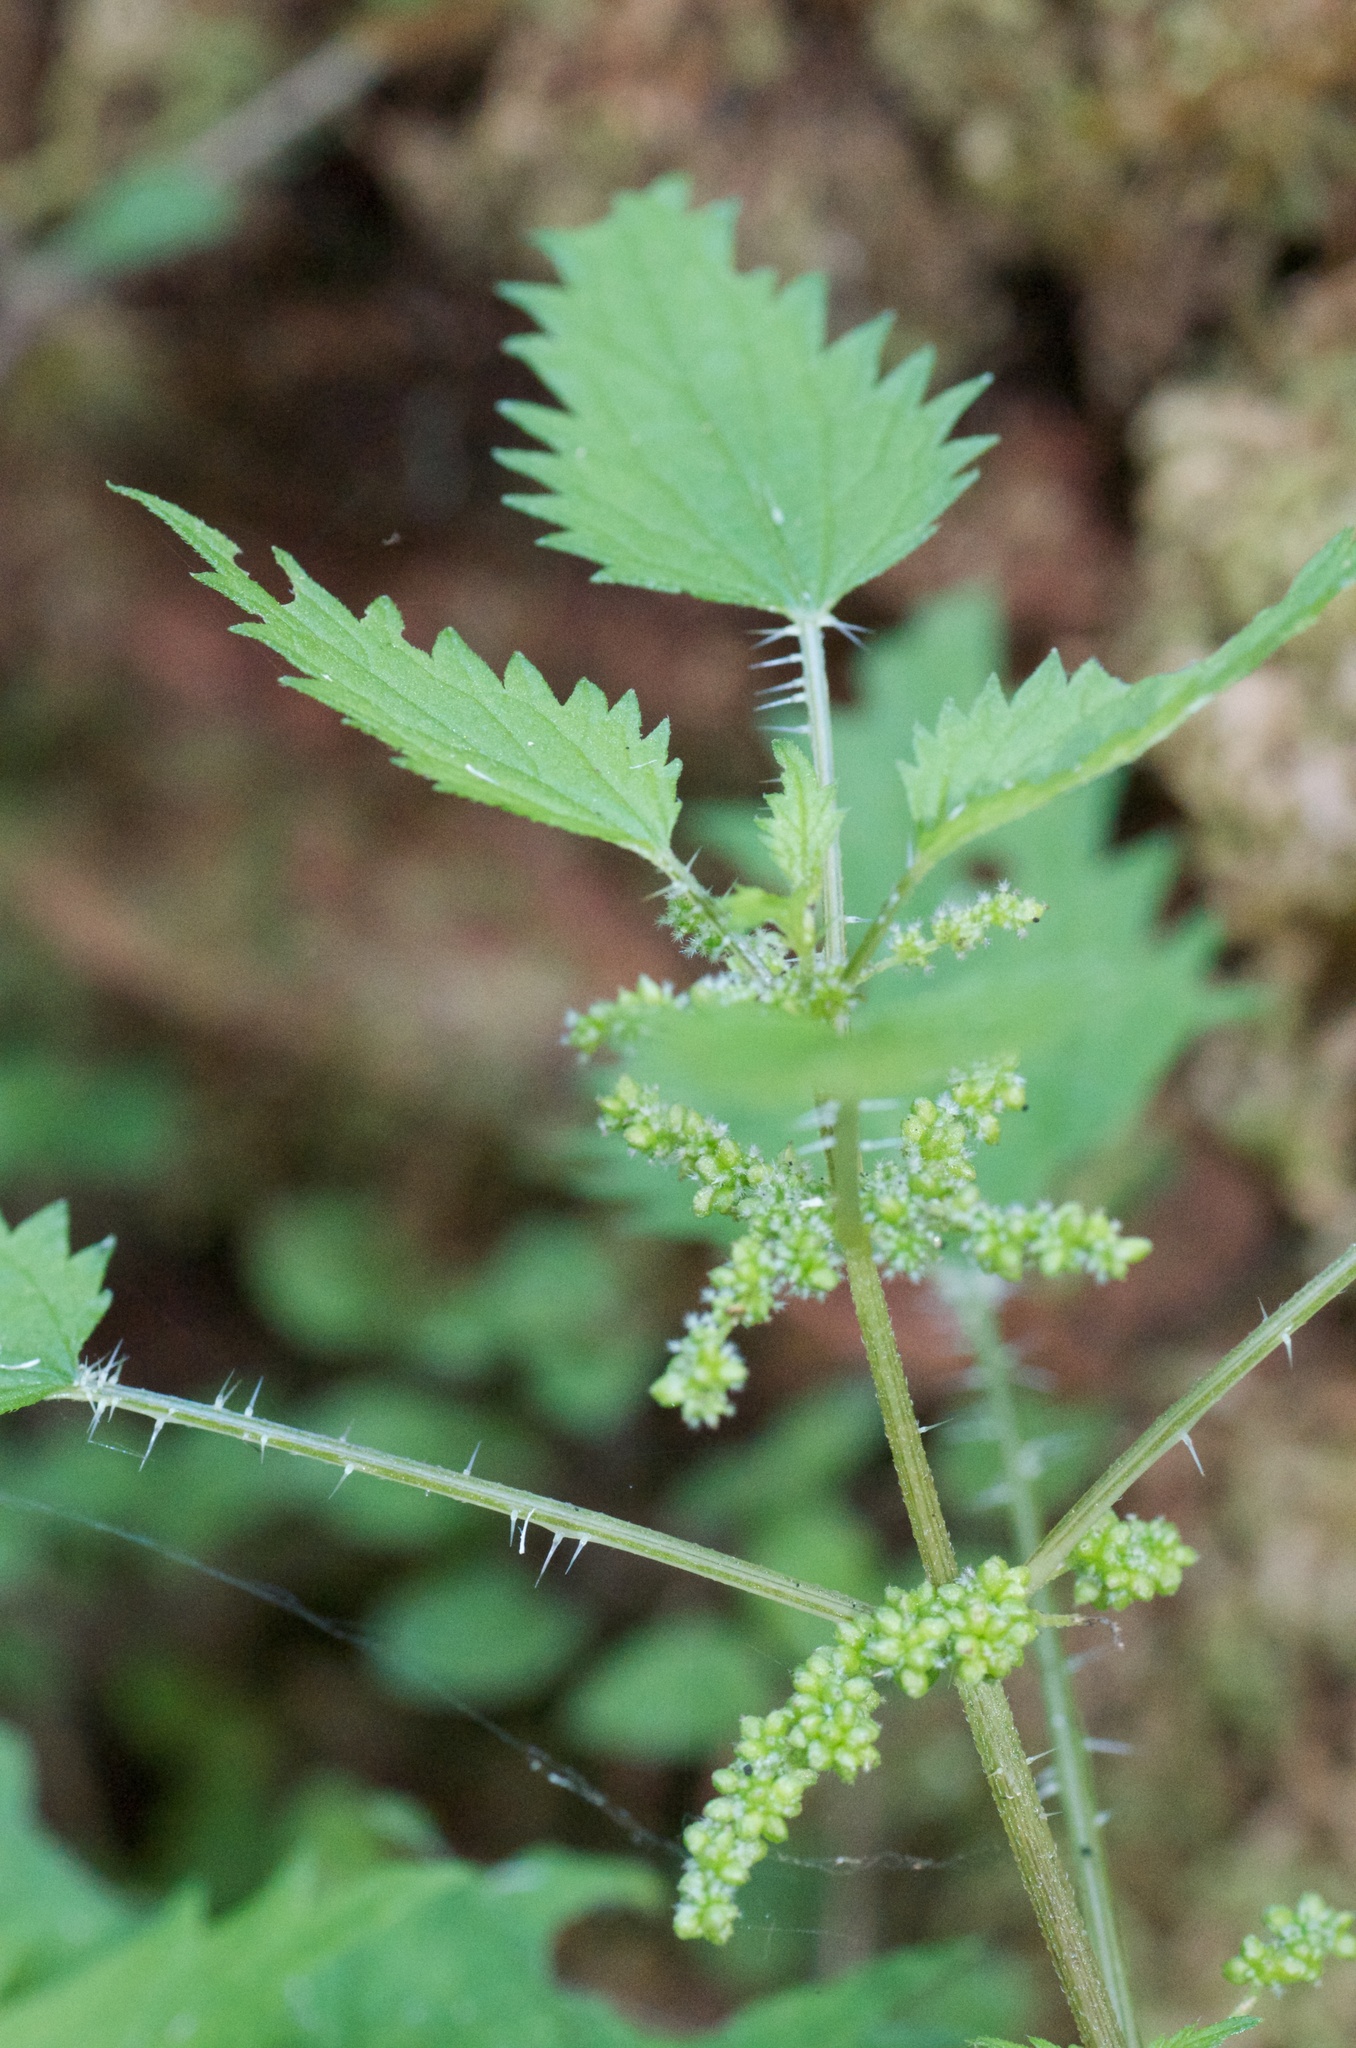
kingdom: Plantae
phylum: Tracheophyta
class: Magnoliopsida
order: Rosales
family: Urticaceae
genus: Urtica
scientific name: Urtica sykesii
